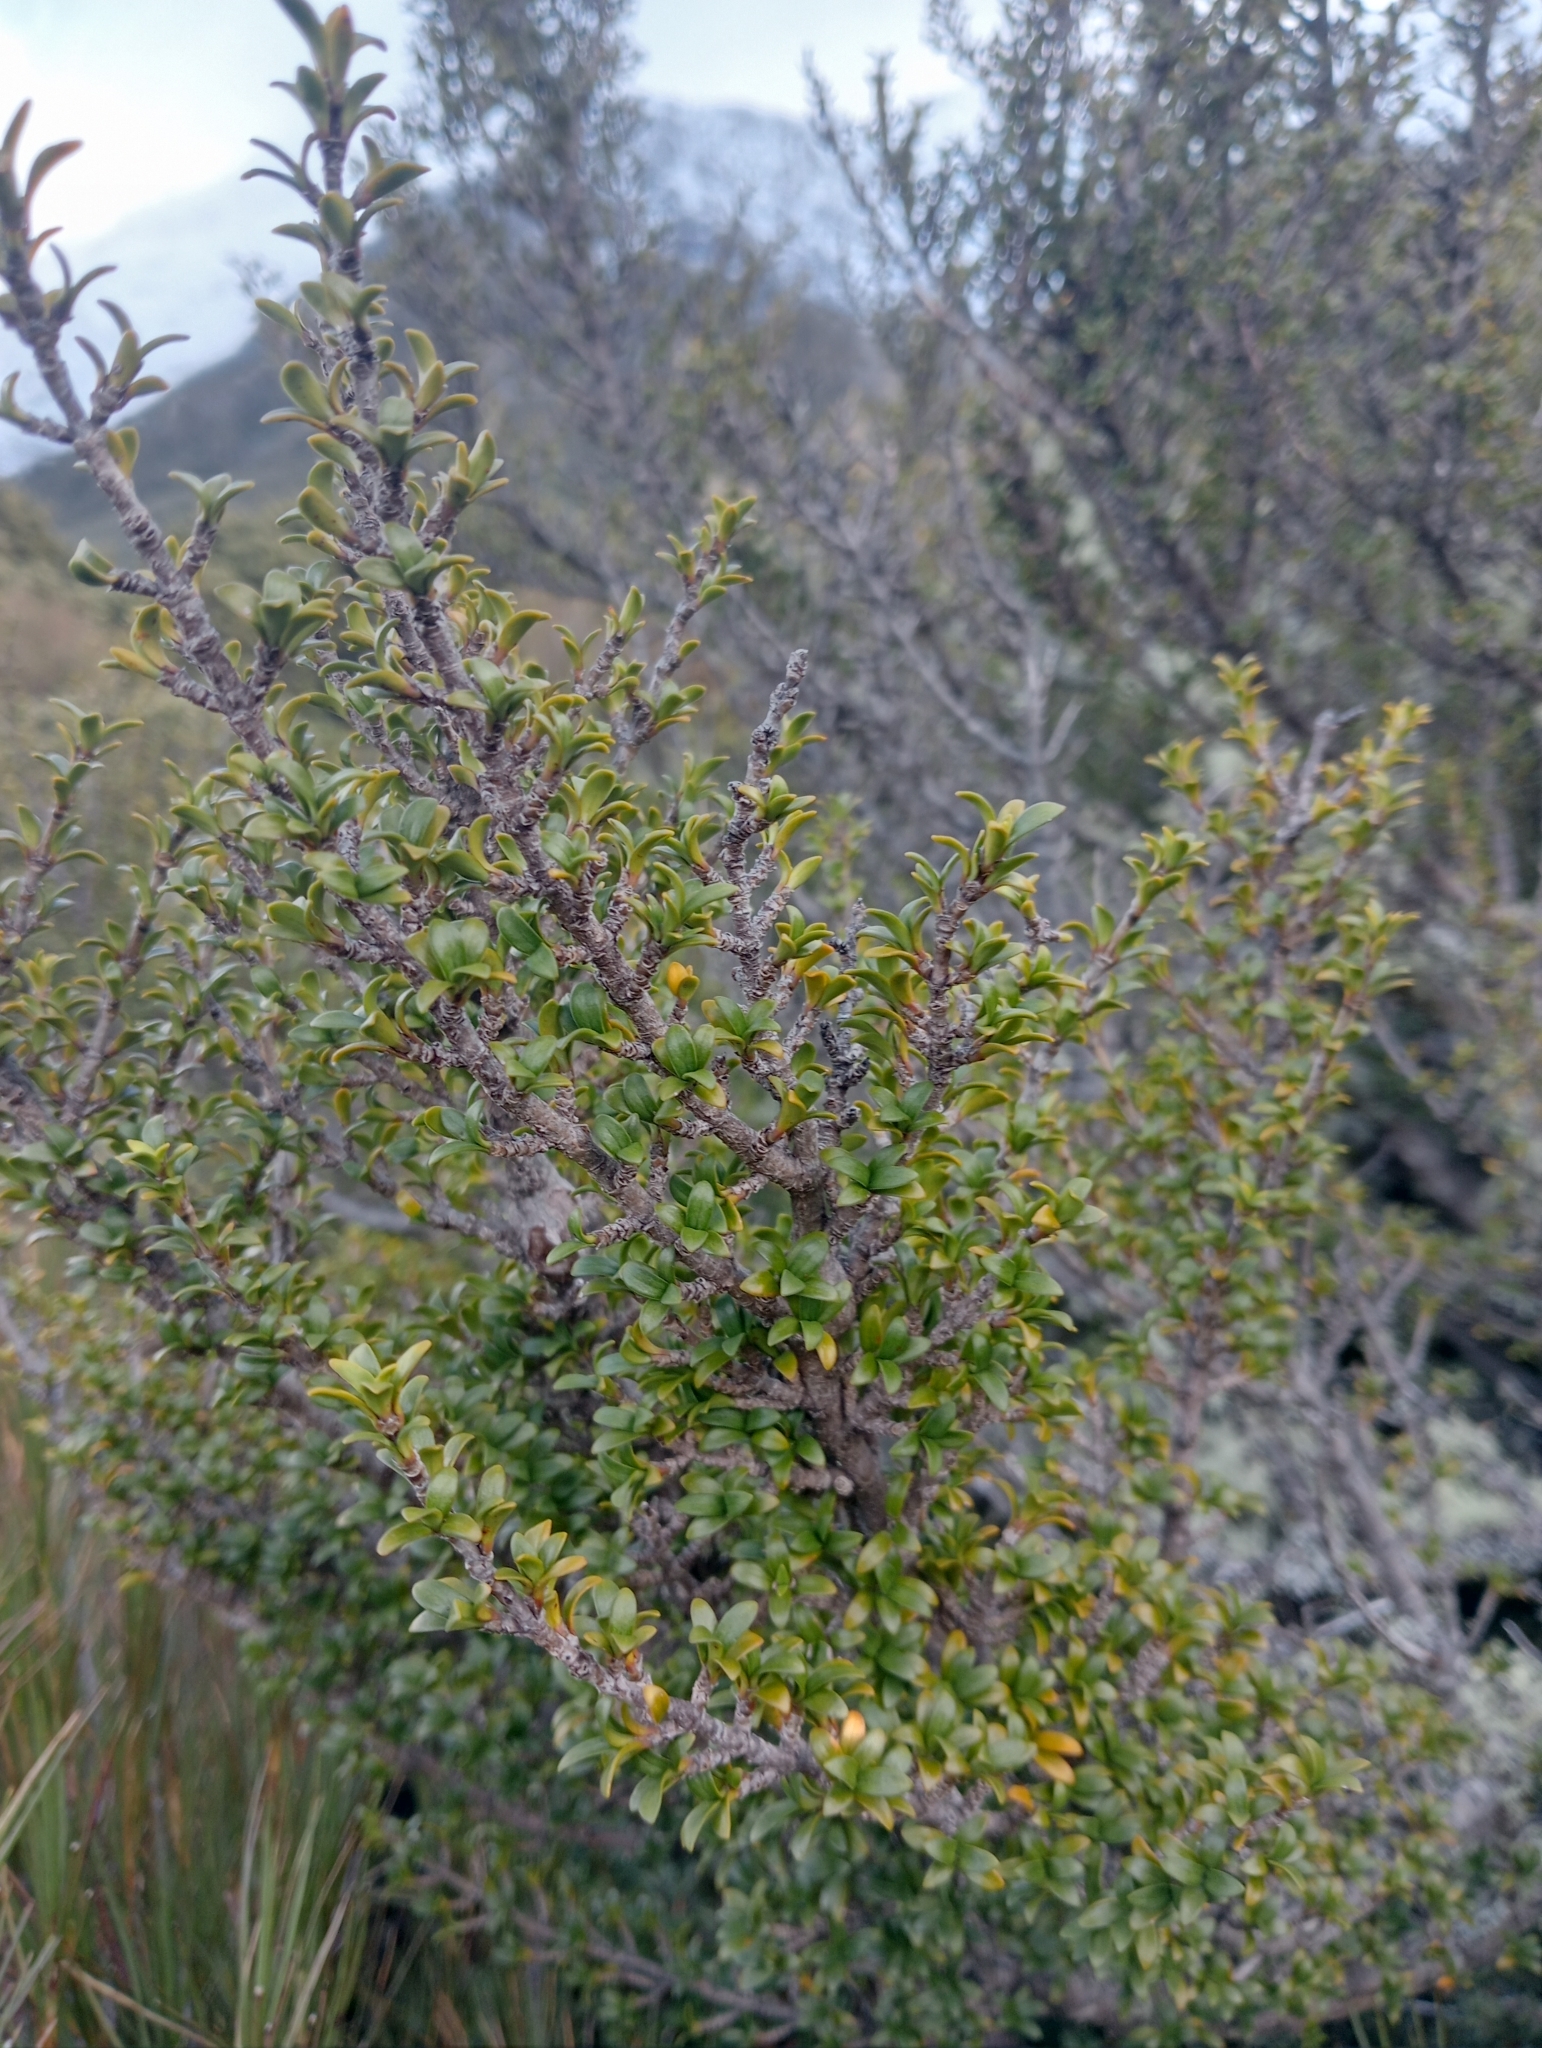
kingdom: Plantae
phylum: Tracheophyta
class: Magnoliopsida
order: Gentianales
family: Rubiaceae
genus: Coprosma
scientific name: Coprosma pseudocuneata
